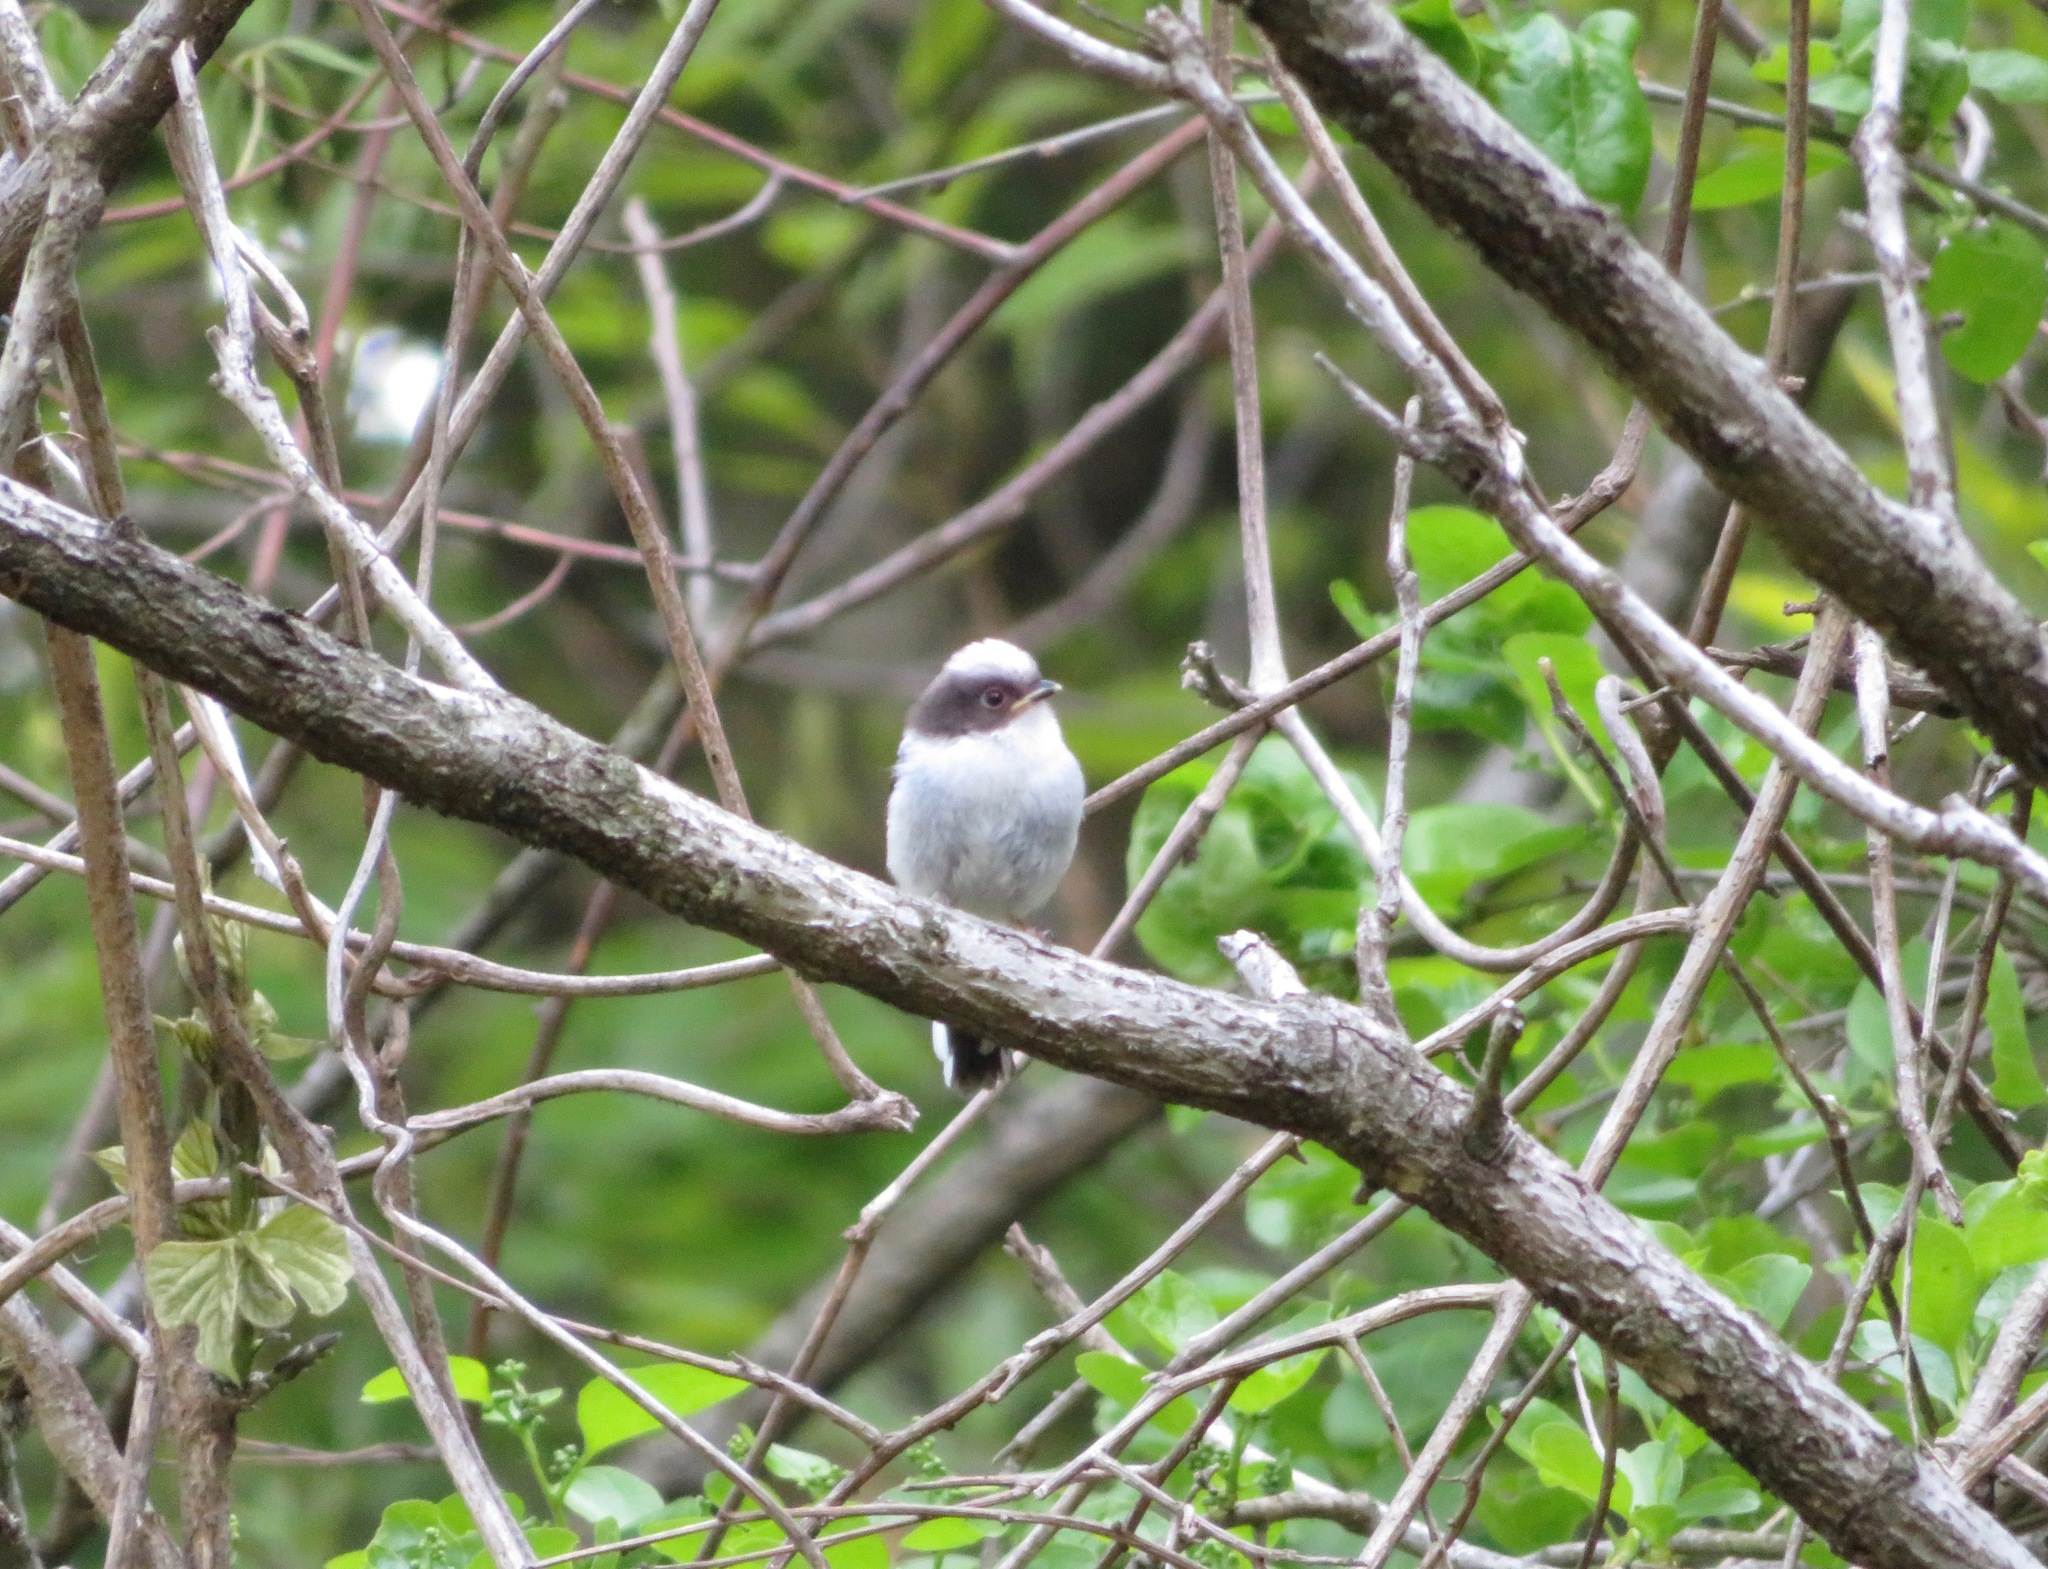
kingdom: Animalia
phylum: Chordata
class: Aves
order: Passeriformes
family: Aegithalidae
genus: Aegithalos
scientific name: Aegithalos caudatus
